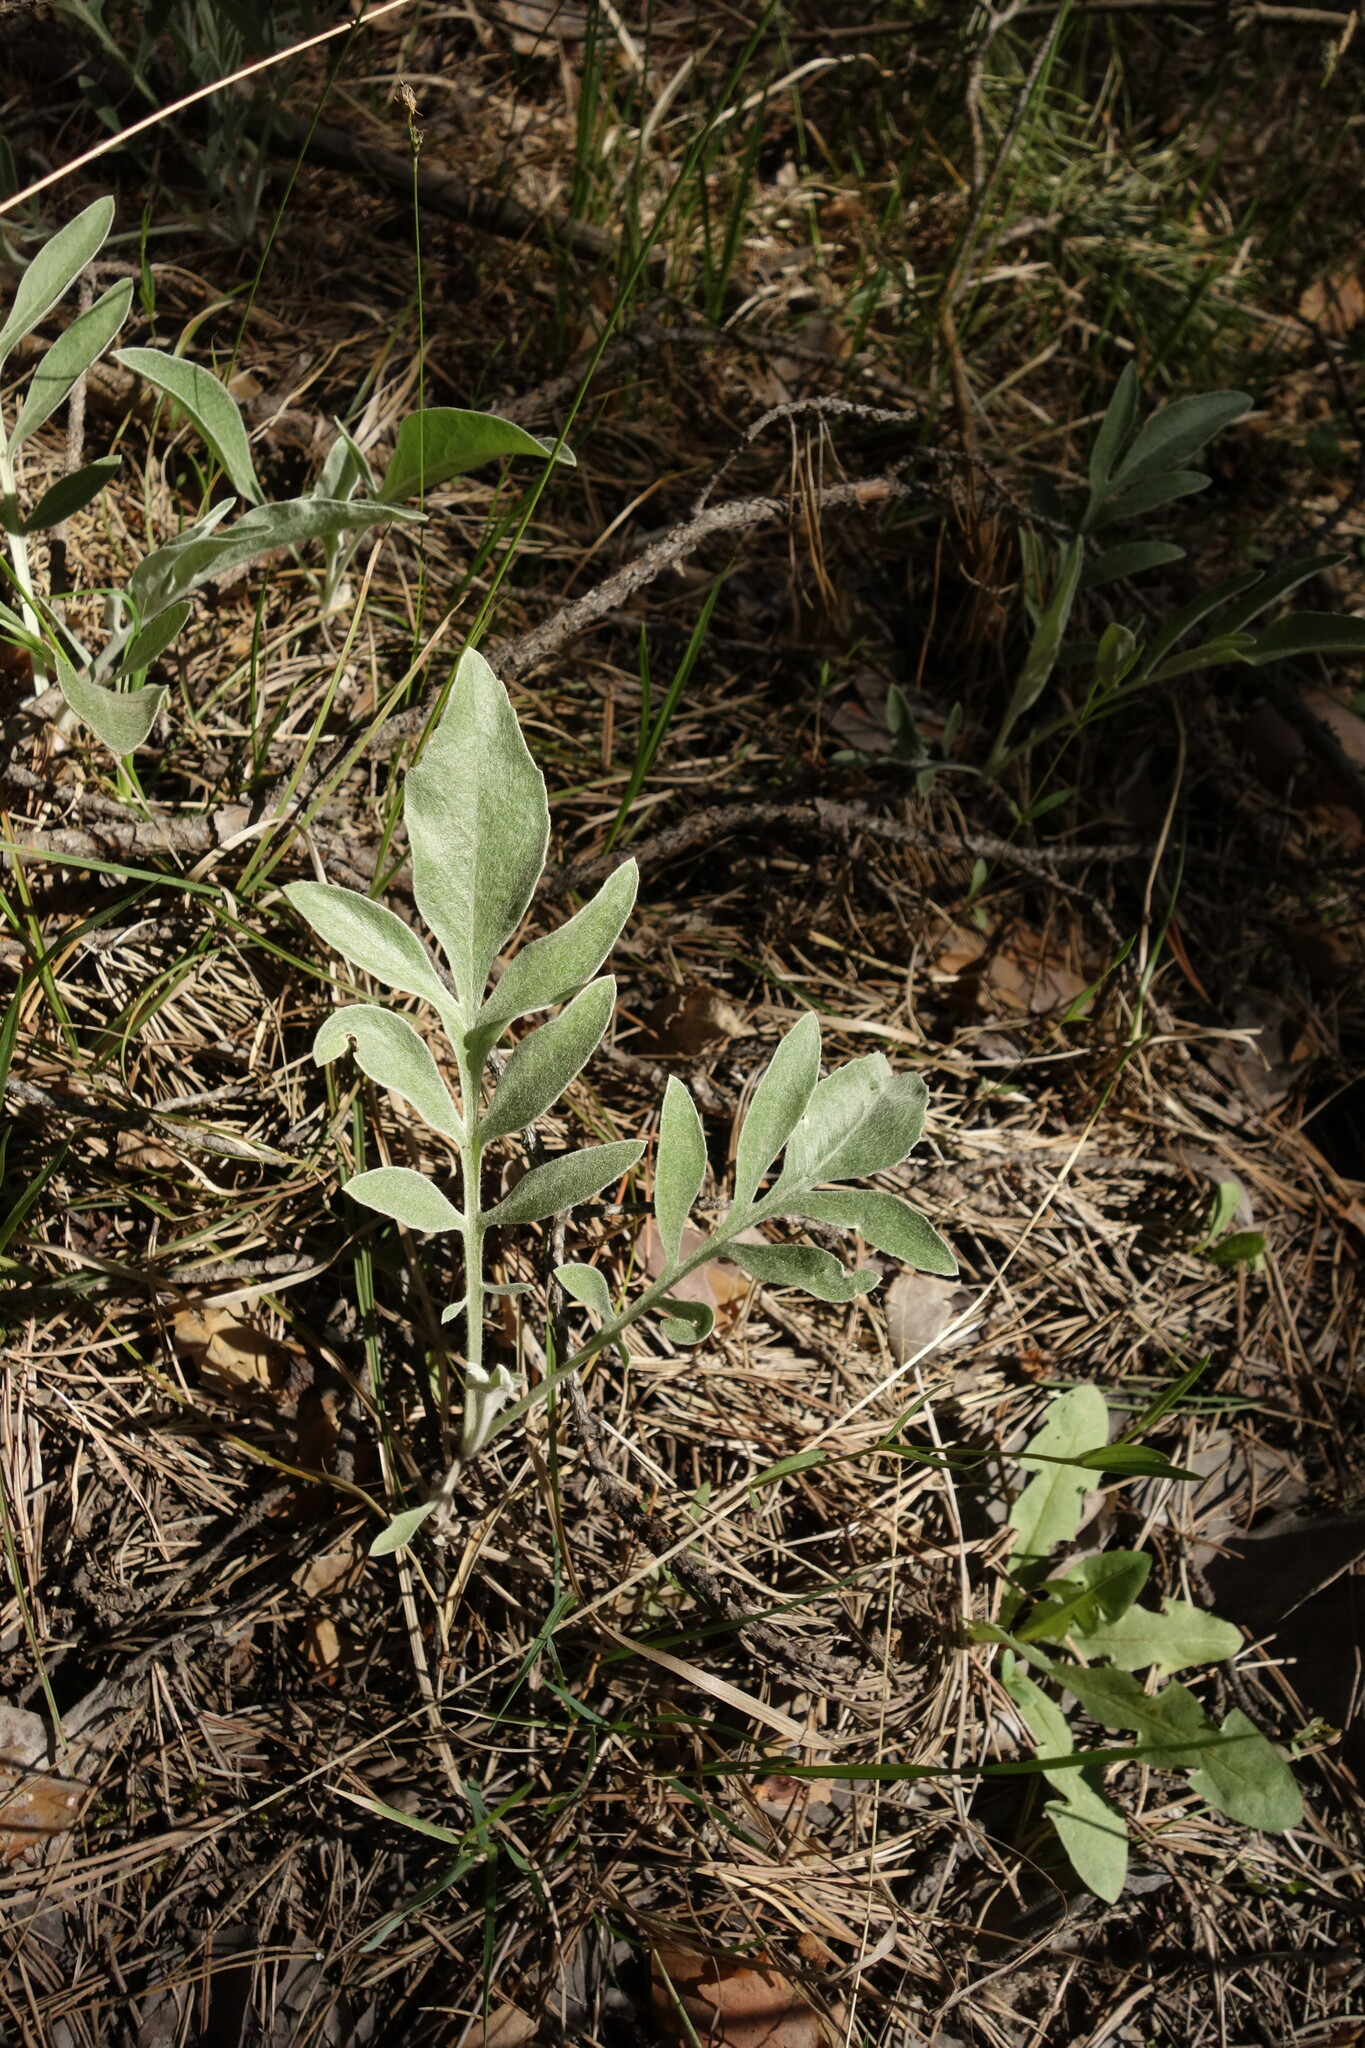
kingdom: Plantae
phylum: Tracheophyta
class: Magnoliopsida
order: Asterales
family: Asteraceae
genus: Psephellus
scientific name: Psephellus sumensis
